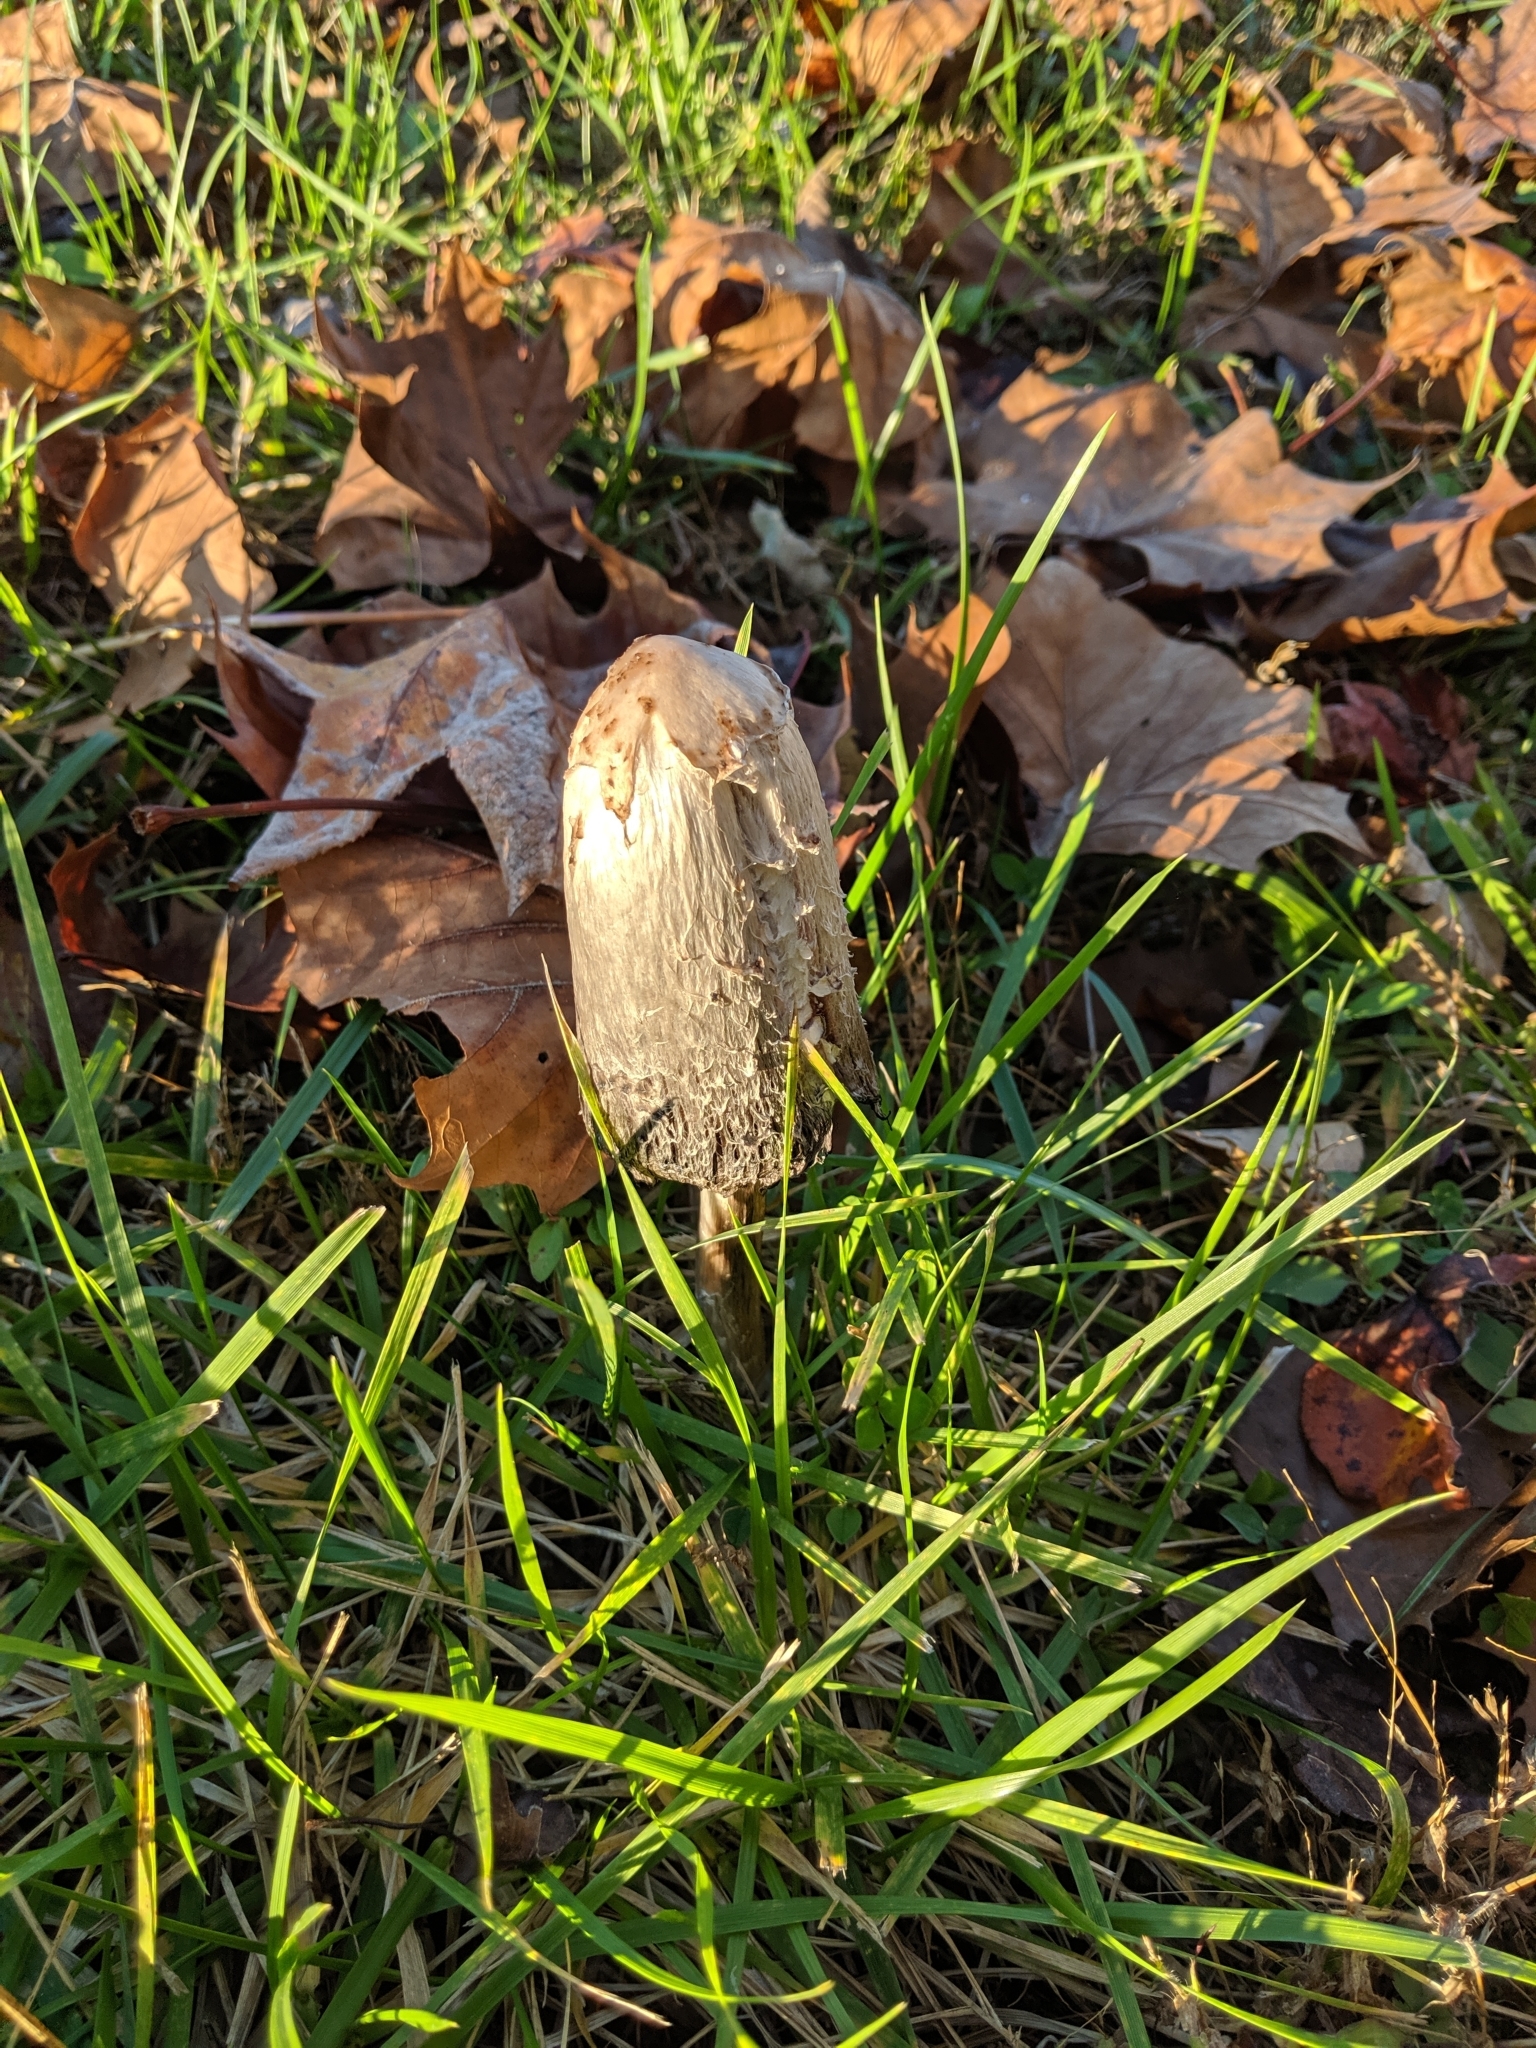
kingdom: Fungi
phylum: Basidiomycota
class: Agaricomycetes
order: Agaricales
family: Agaricaceae
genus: Coprinus
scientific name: Coprinus comatus
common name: Lawyer's wig
